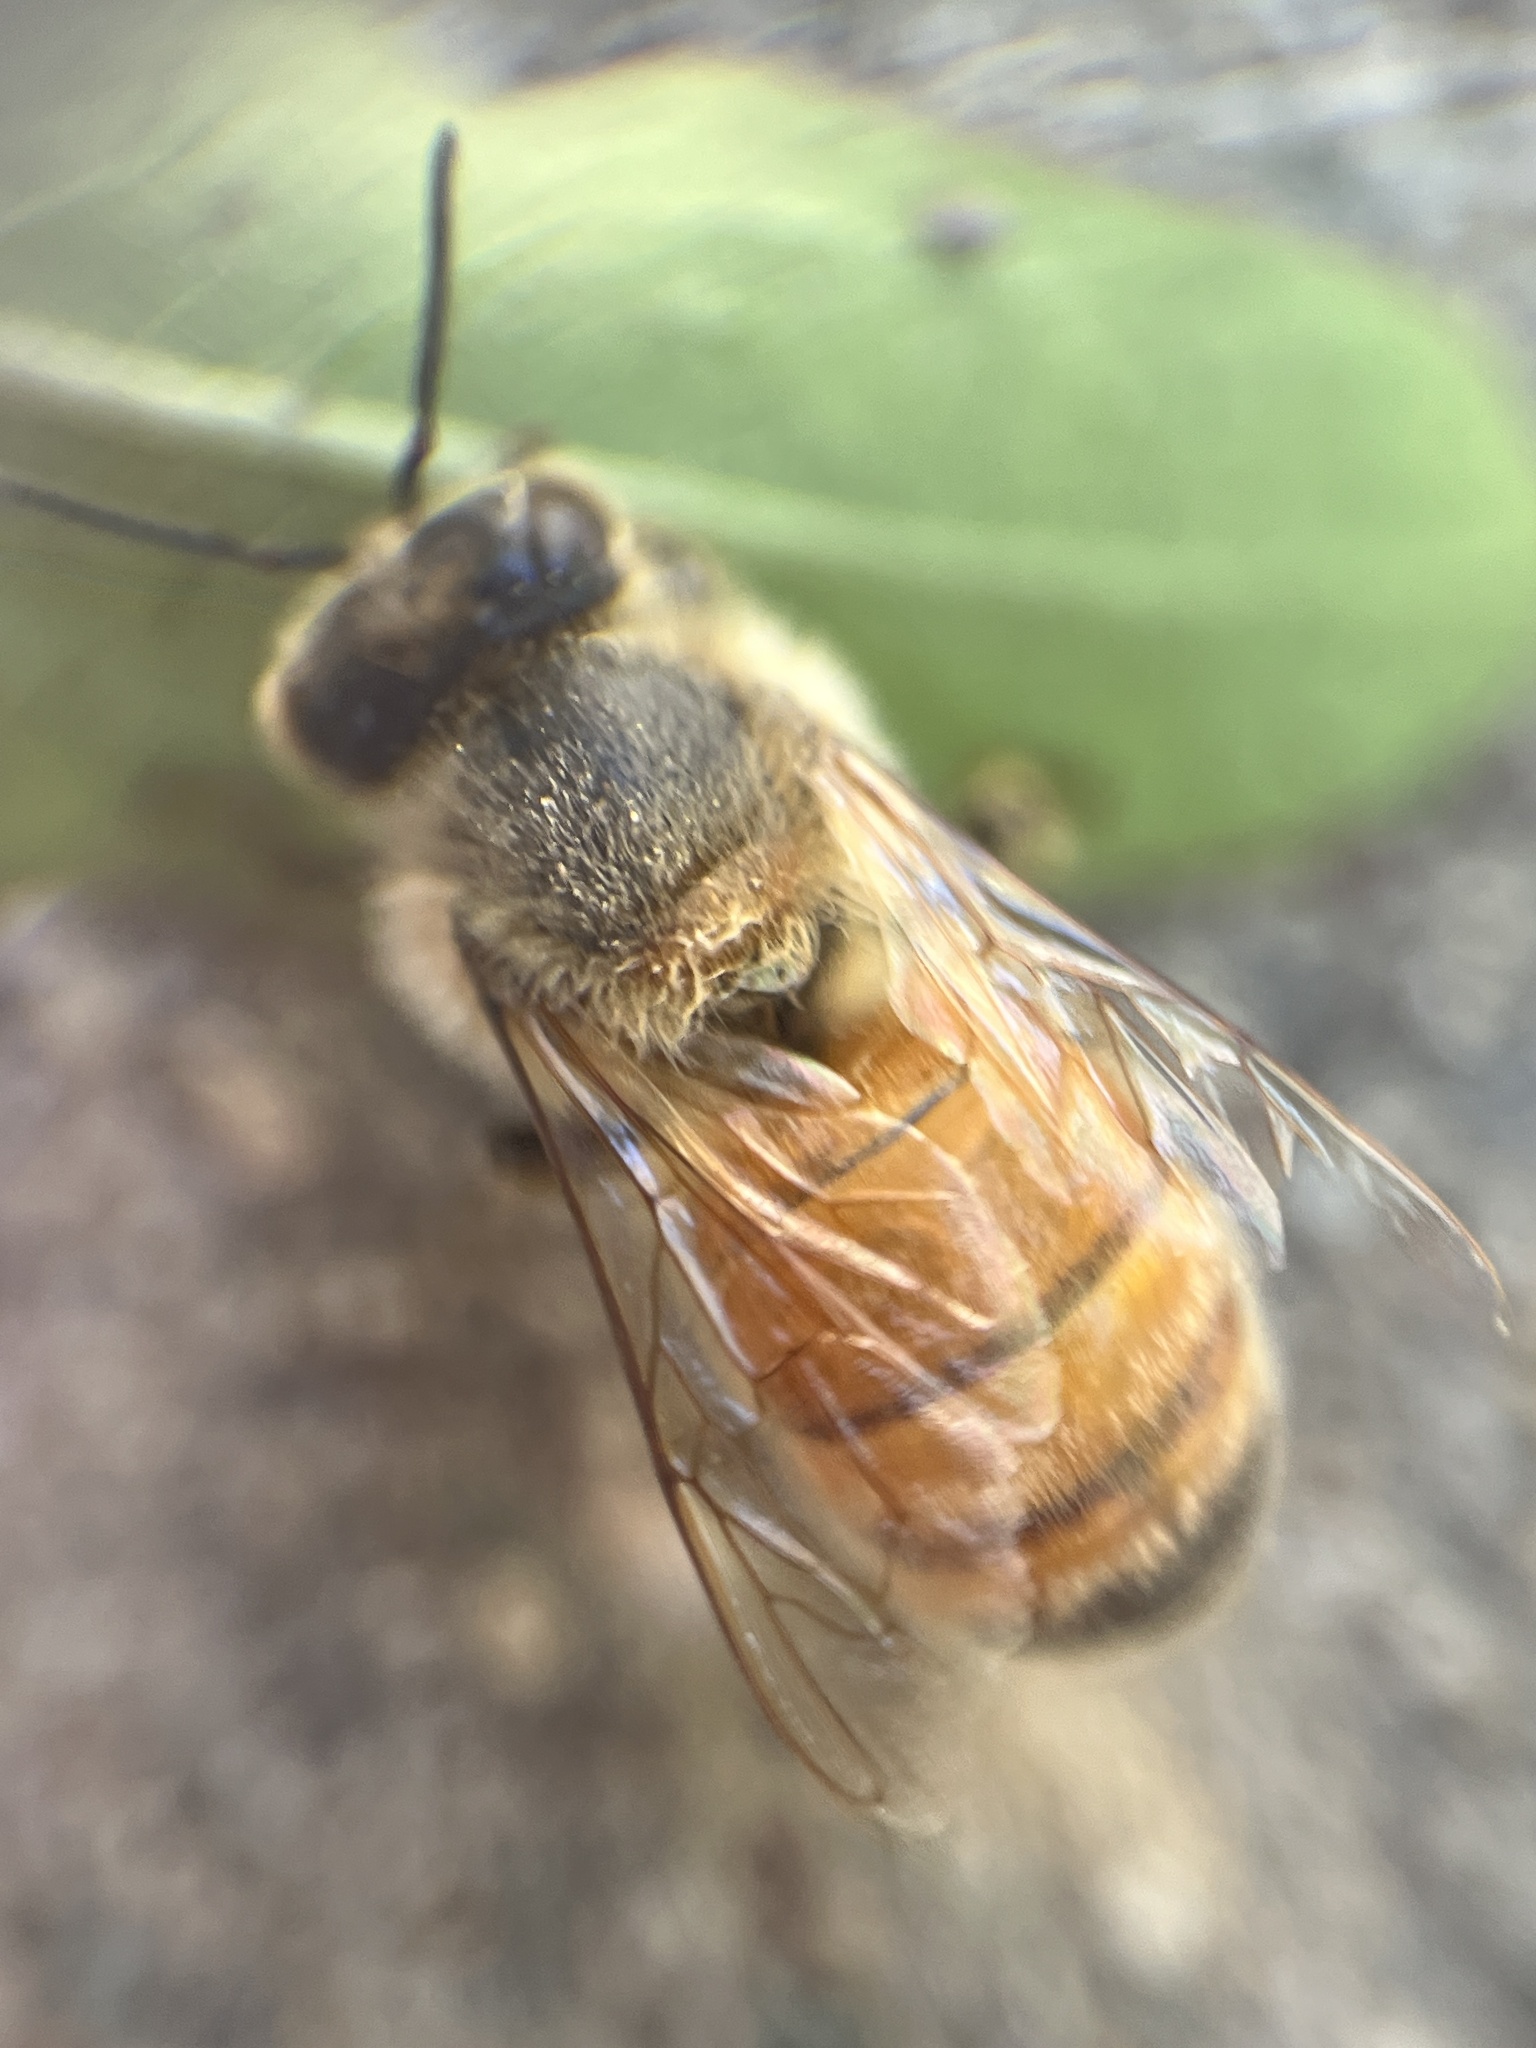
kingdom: Animalia
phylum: Arthropoda
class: Insecta
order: Hymenoptera
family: Apidae
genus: Apis
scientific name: Apis mellifera
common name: Honey bee
